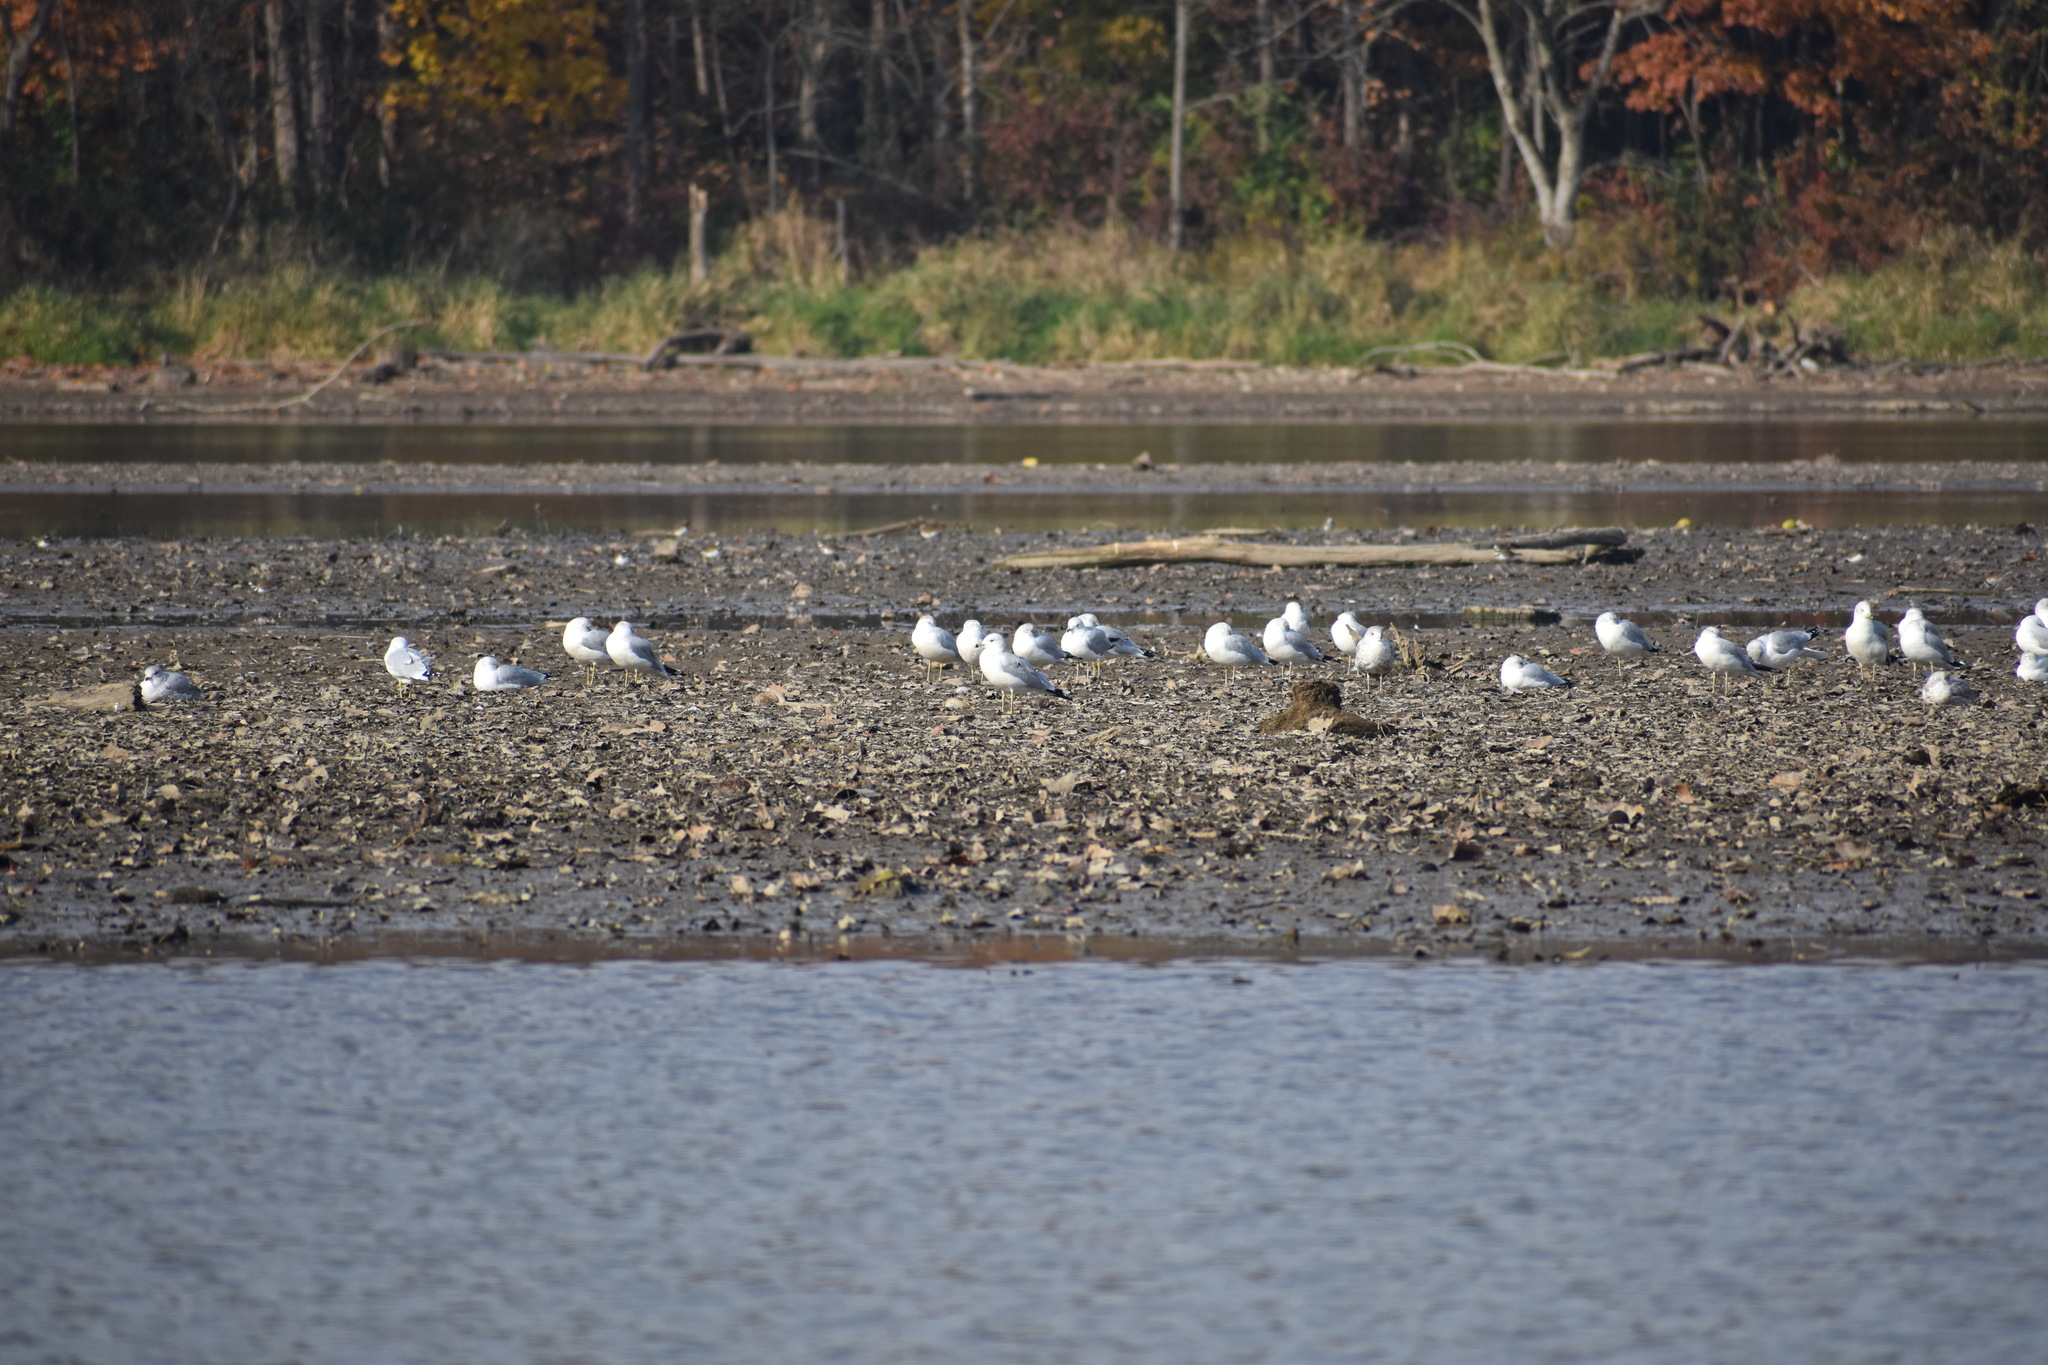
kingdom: Animalia
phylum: Chordata
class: Aves
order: Charadriiformes
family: Laridae
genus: Larus
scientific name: Larus delawarensis
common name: Ring-billed gull
